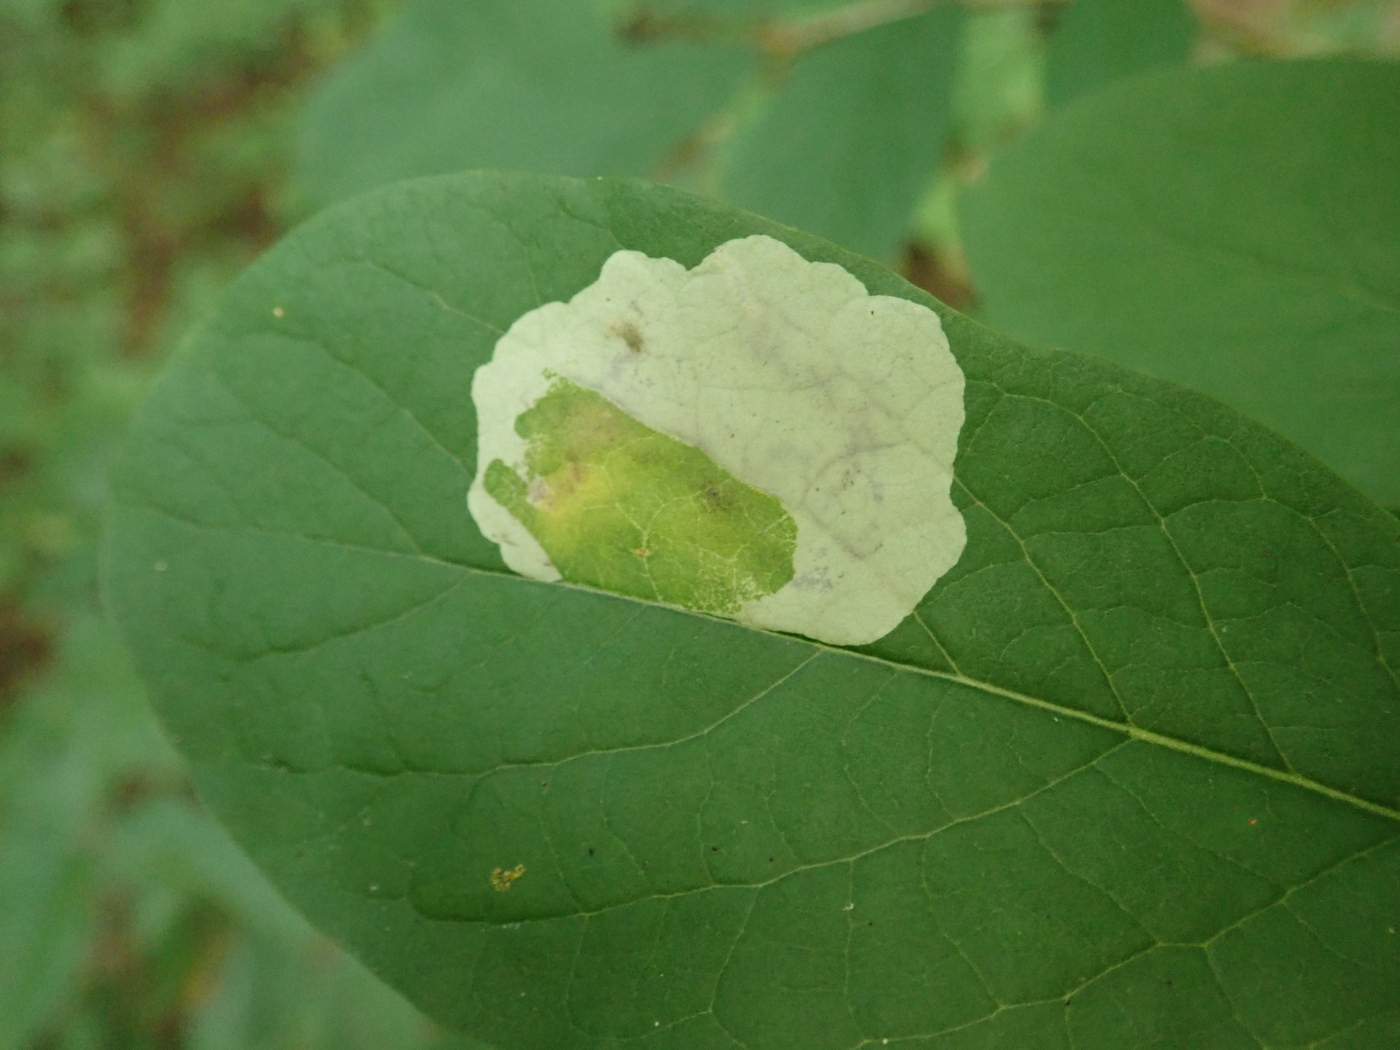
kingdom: Animalia
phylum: Arthropoda
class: Insecta
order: Lepidoptera
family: Gracillariidae
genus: Leucanthiza
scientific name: Leucanthiza dircella
